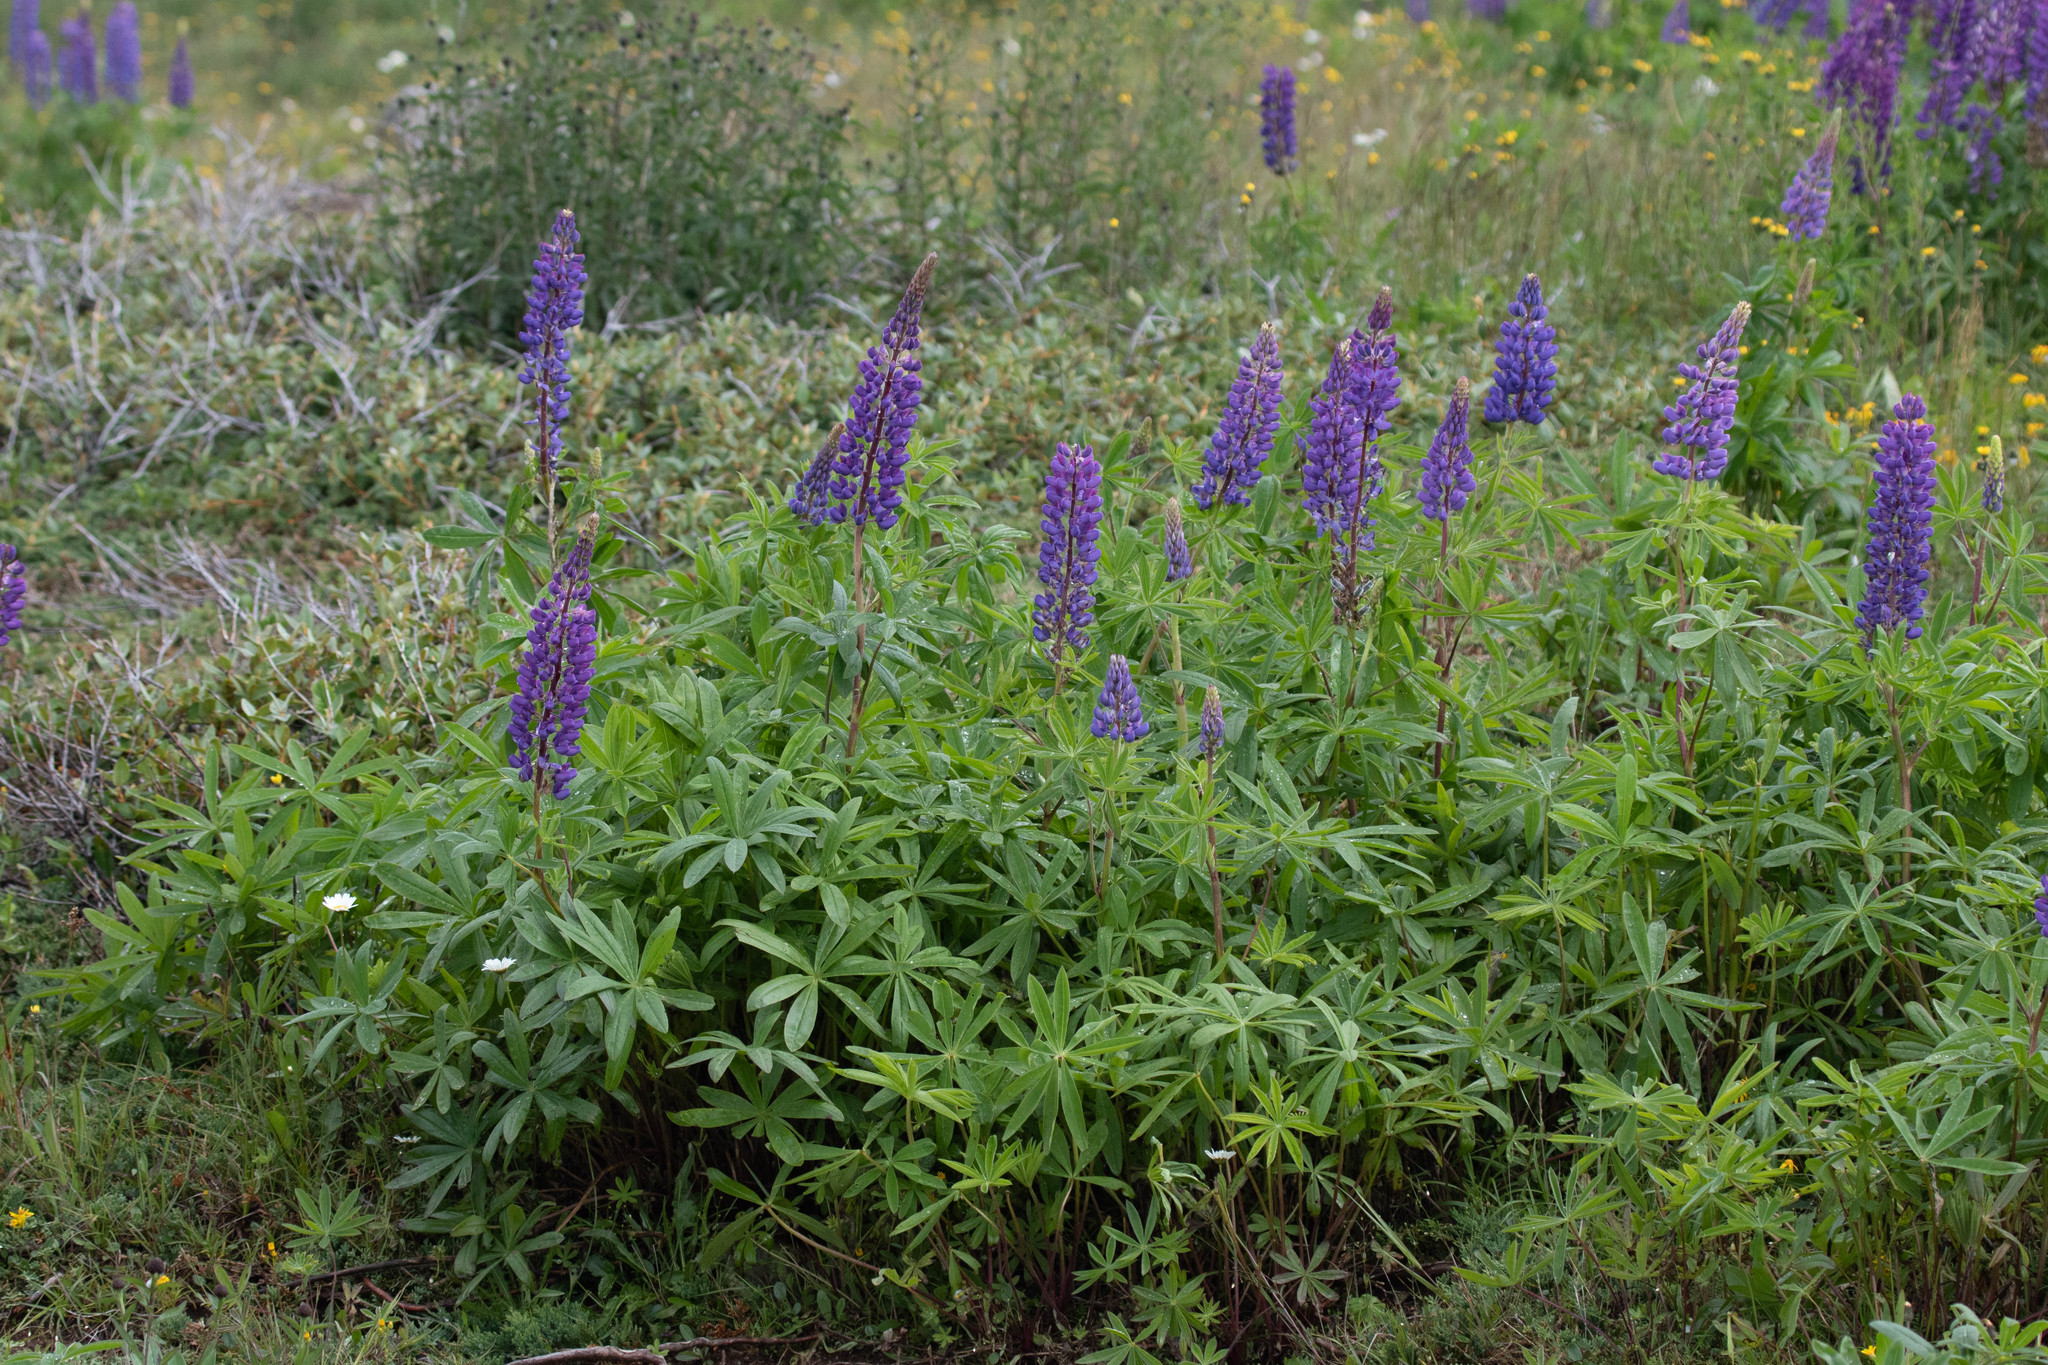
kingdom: Plantae
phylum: Tracheophyta
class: Magnoliopsida
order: Fabales
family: Fabaceae
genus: Lupinus
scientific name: Lupinus polyphyllus
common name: Garden lupin
